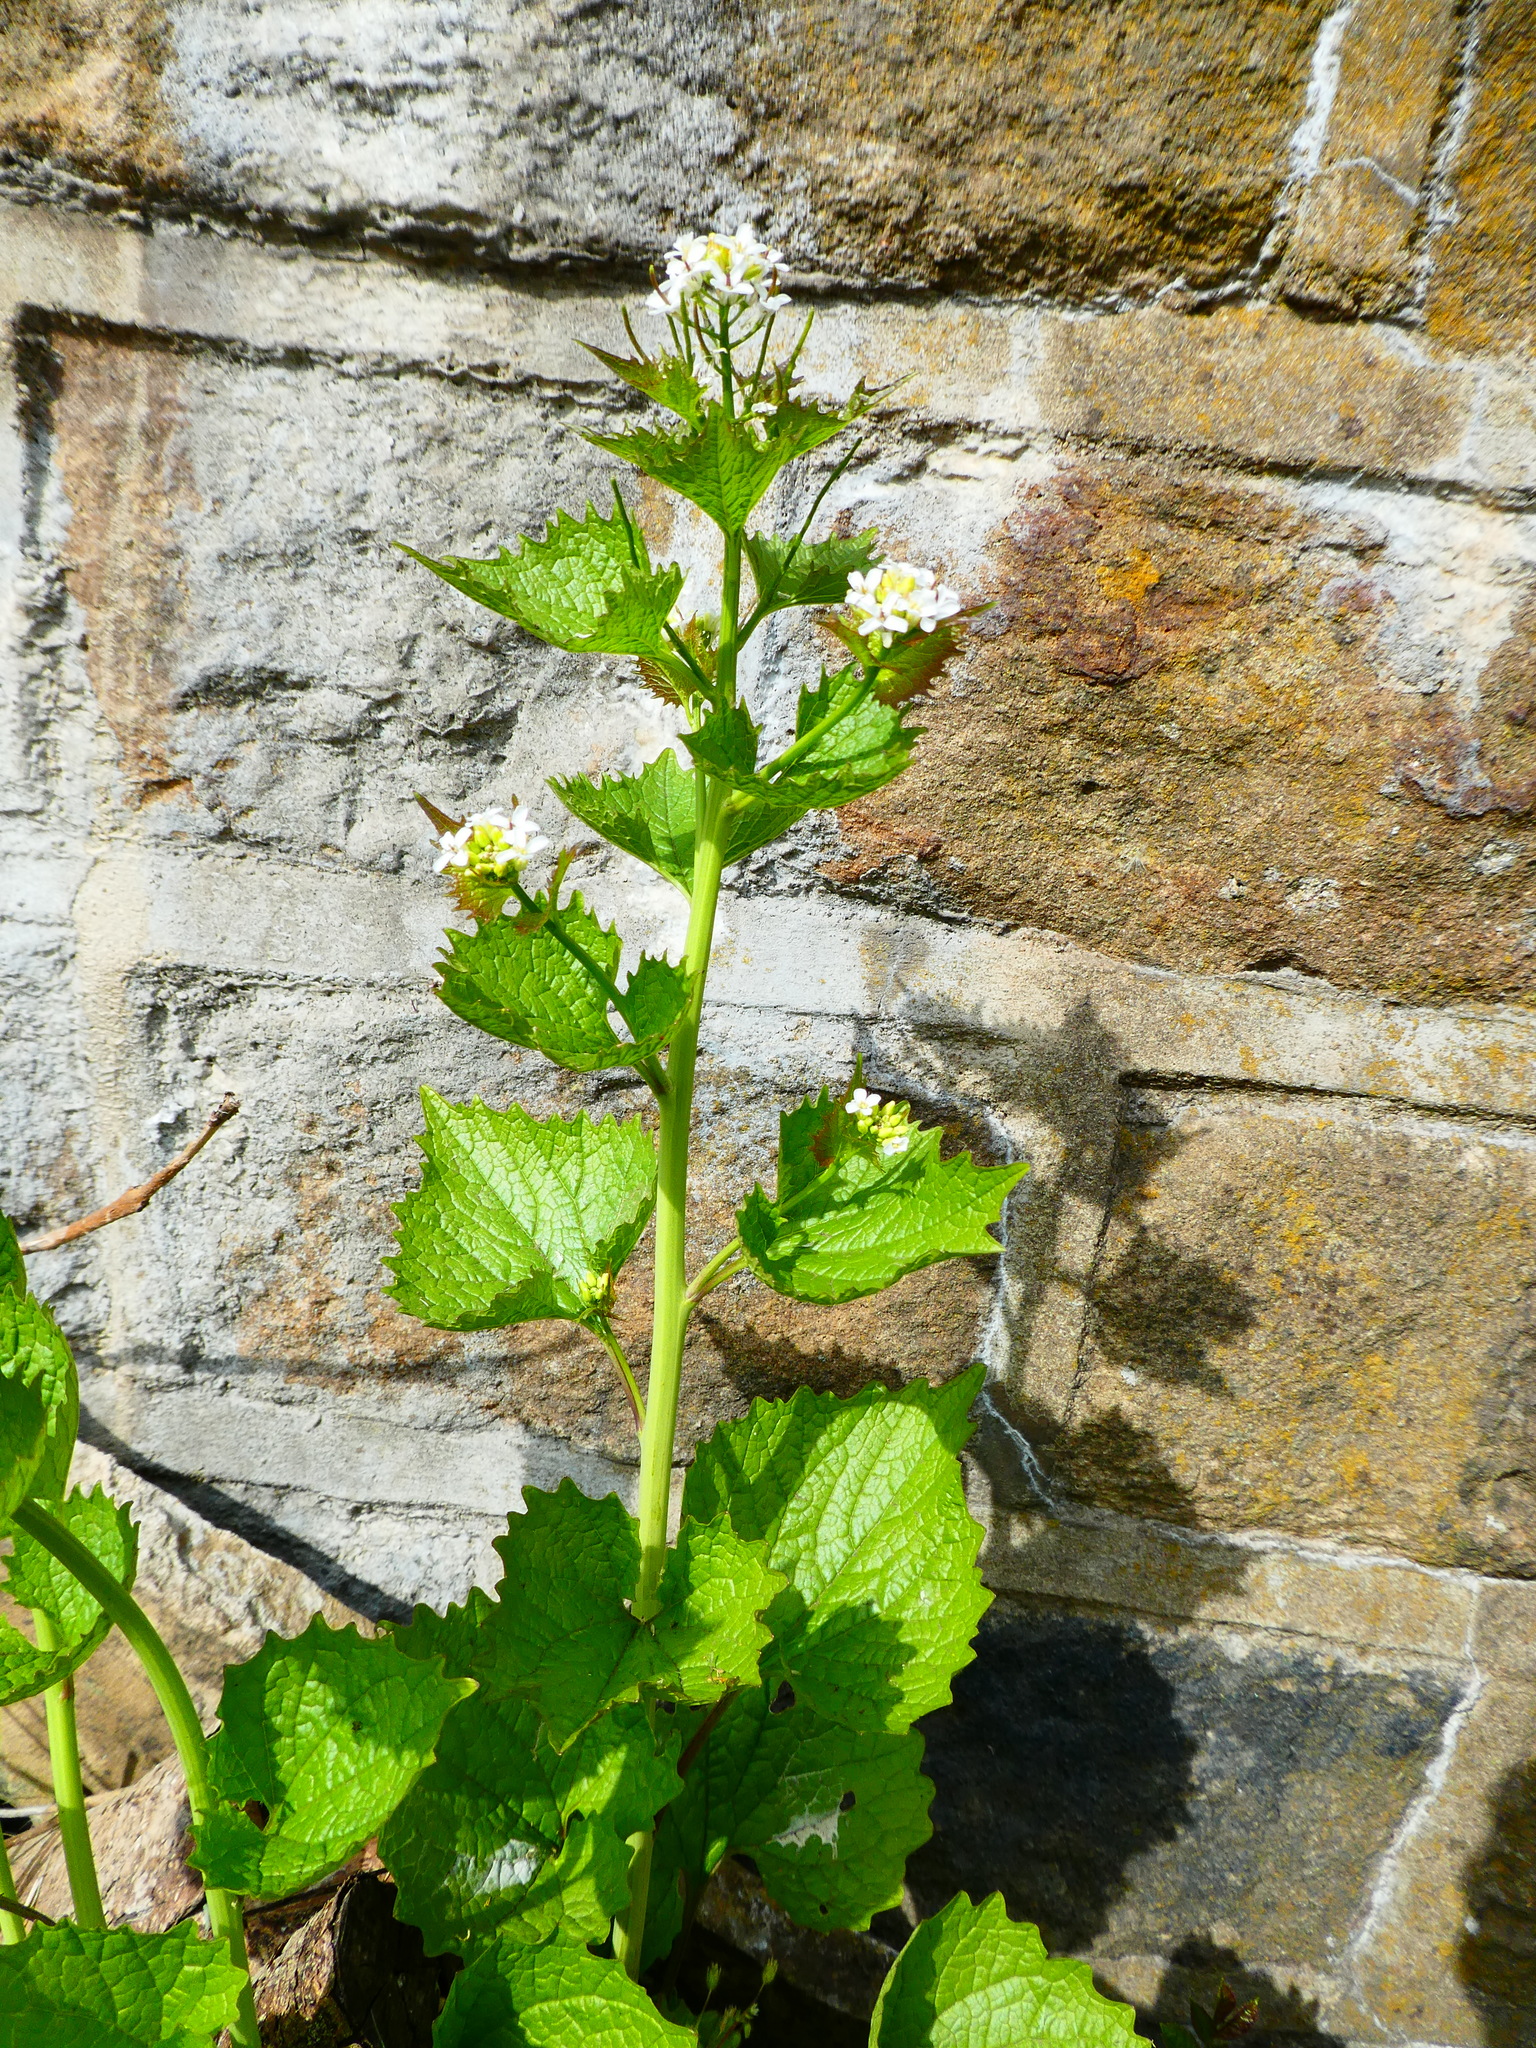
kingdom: Plantae
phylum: Tracheophyta
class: Magnoliopsida
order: Brassicales
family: Brassicaceae
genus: Alliaria
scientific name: Alliaria petiolata
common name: Garlic mustard
